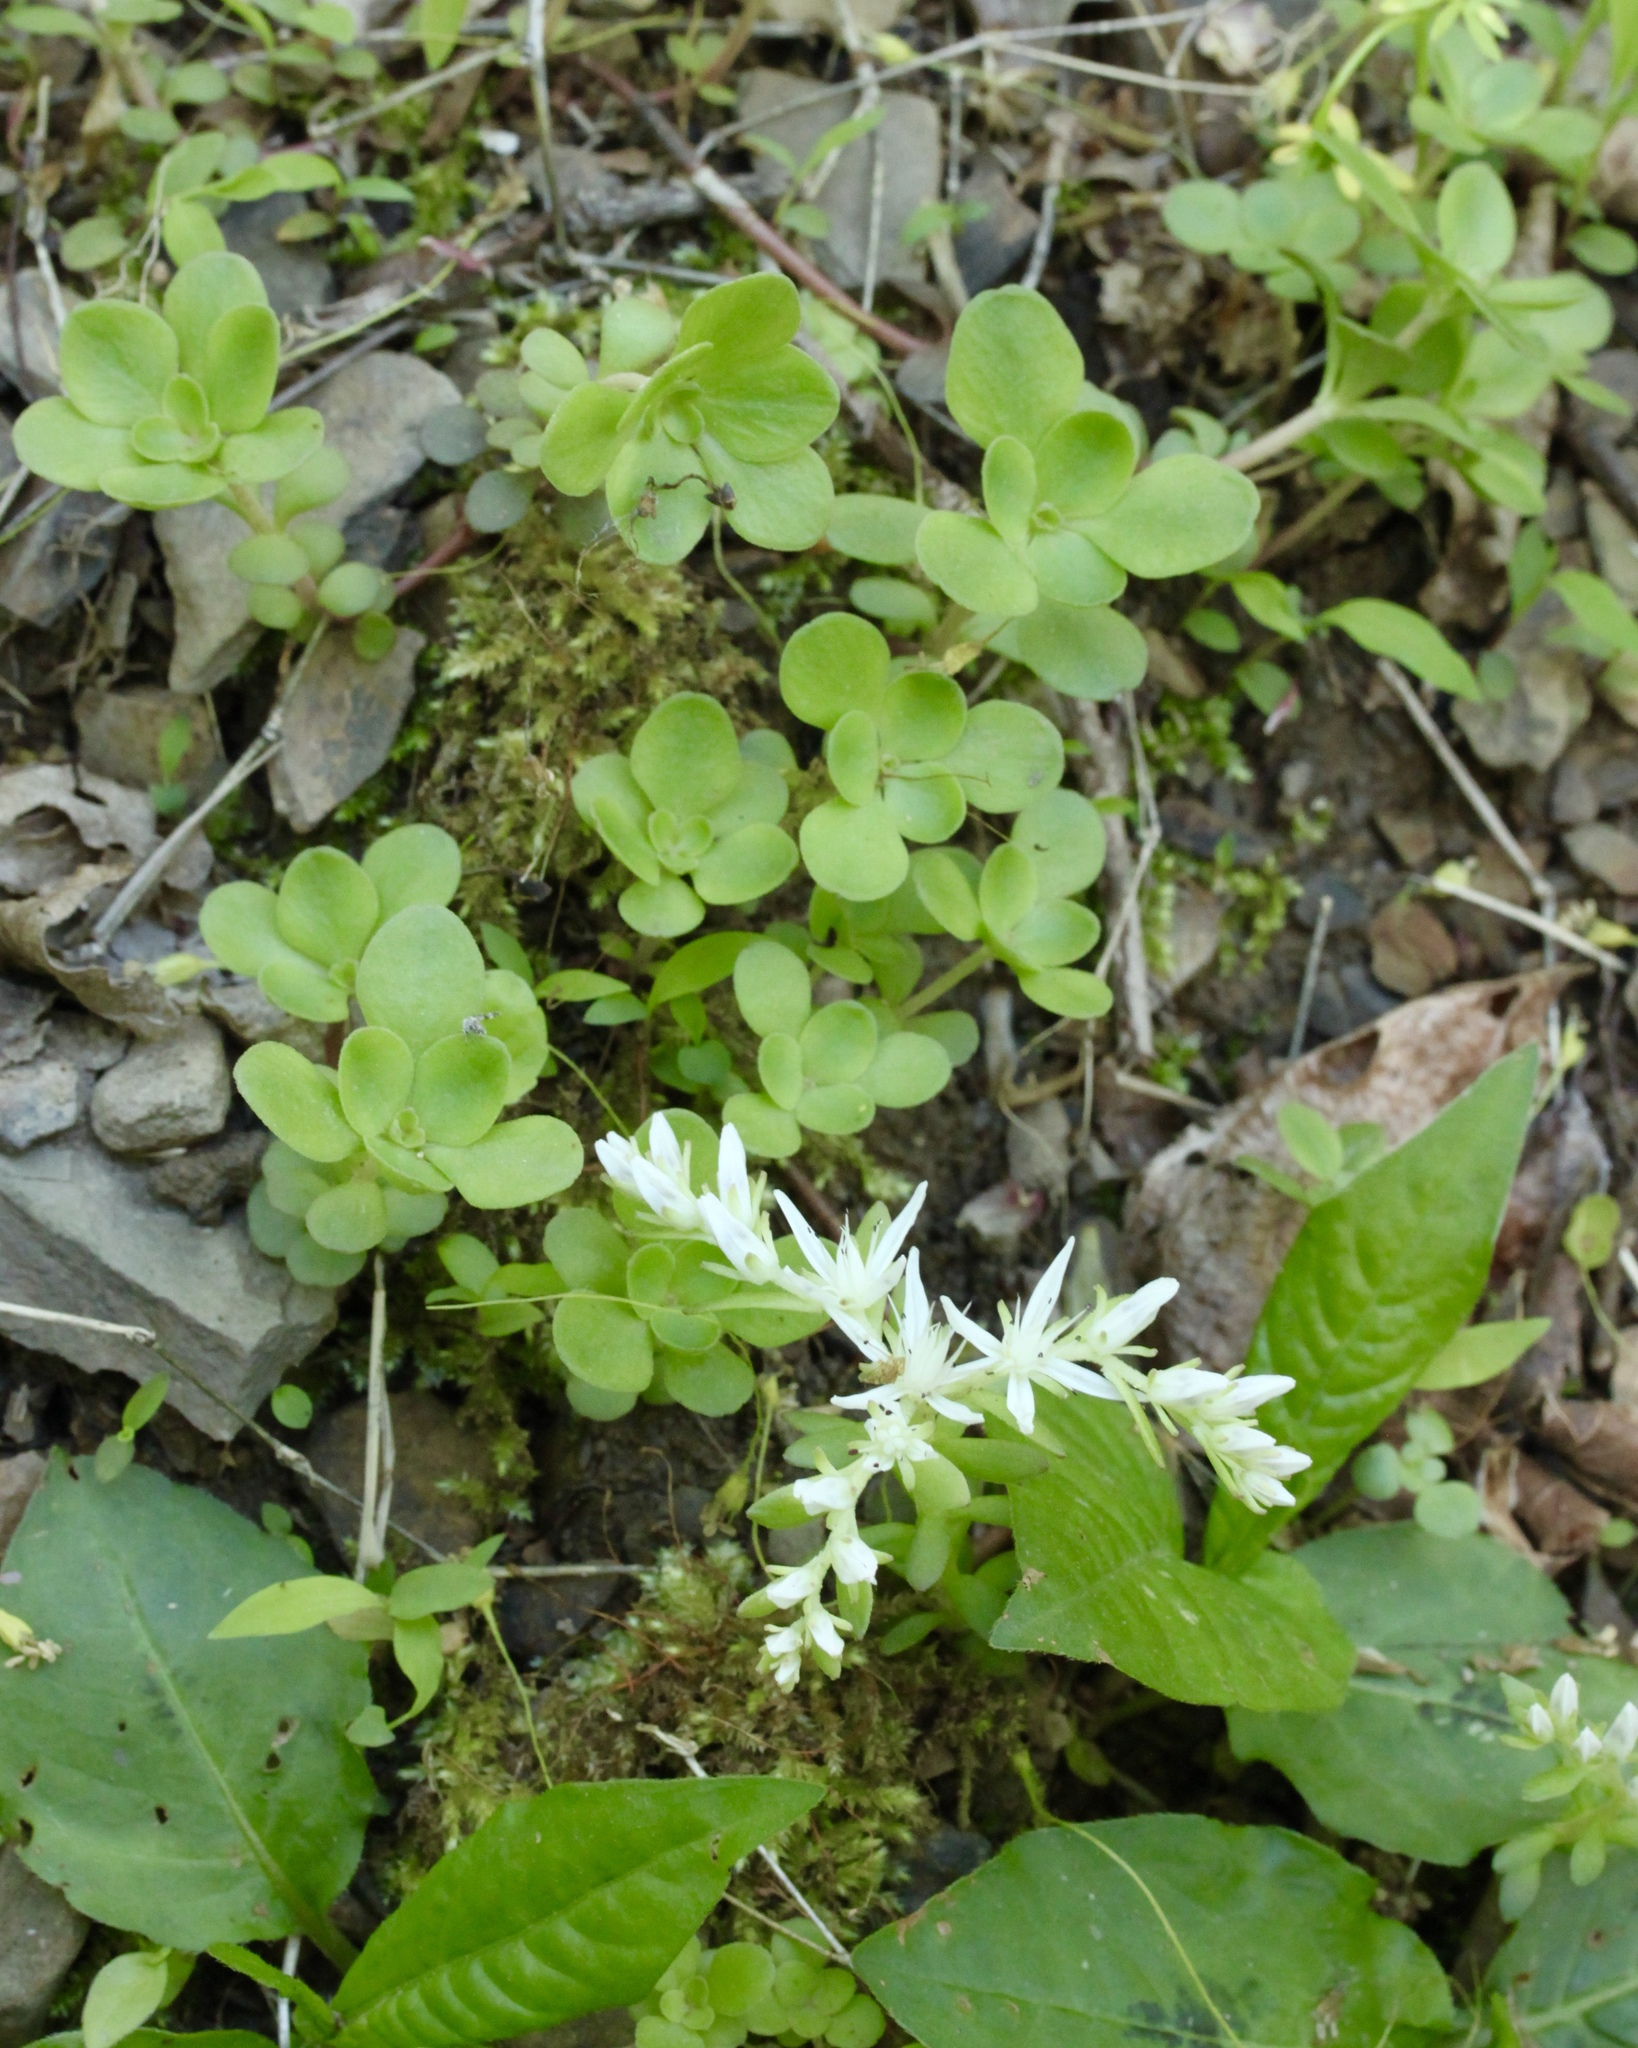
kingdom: Plantae
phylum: Tracheophyta
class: Magnoliopsida
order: Saxifragales
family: Crassulaceae
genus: Sedum
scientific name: Sedum ternatum
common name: Wild stonecrop
